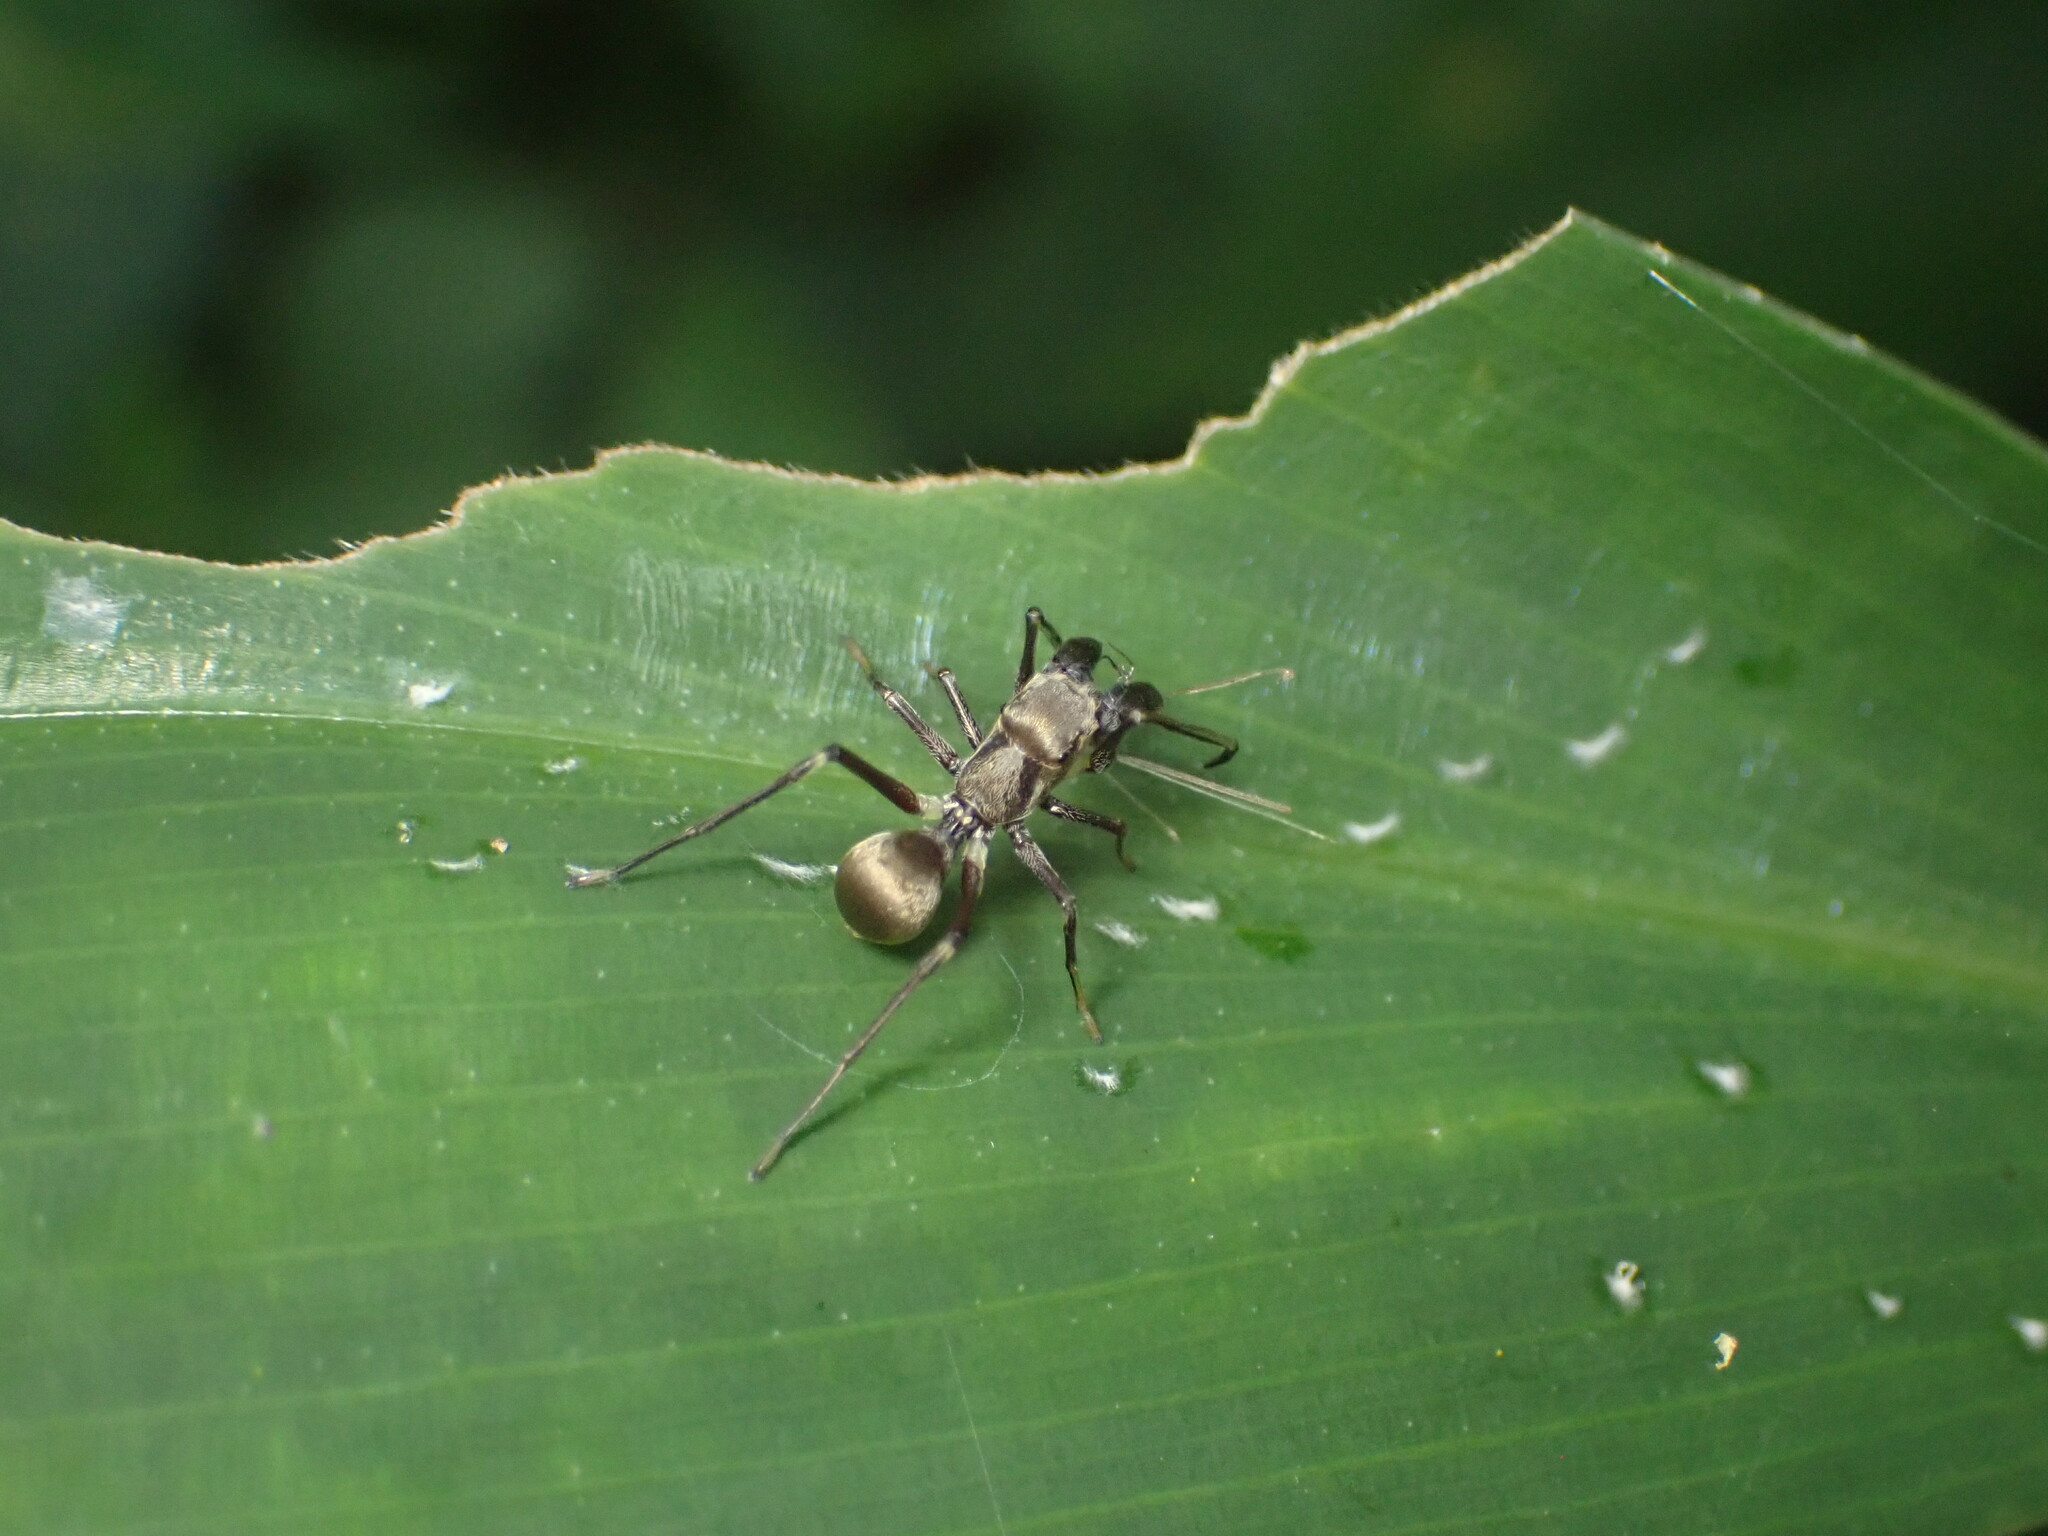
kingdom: Animalia
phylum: Arthropoda
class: Arachnida
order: Araneae
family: Salticidae
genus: Toxeus
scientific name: Toxeus maxillosus
